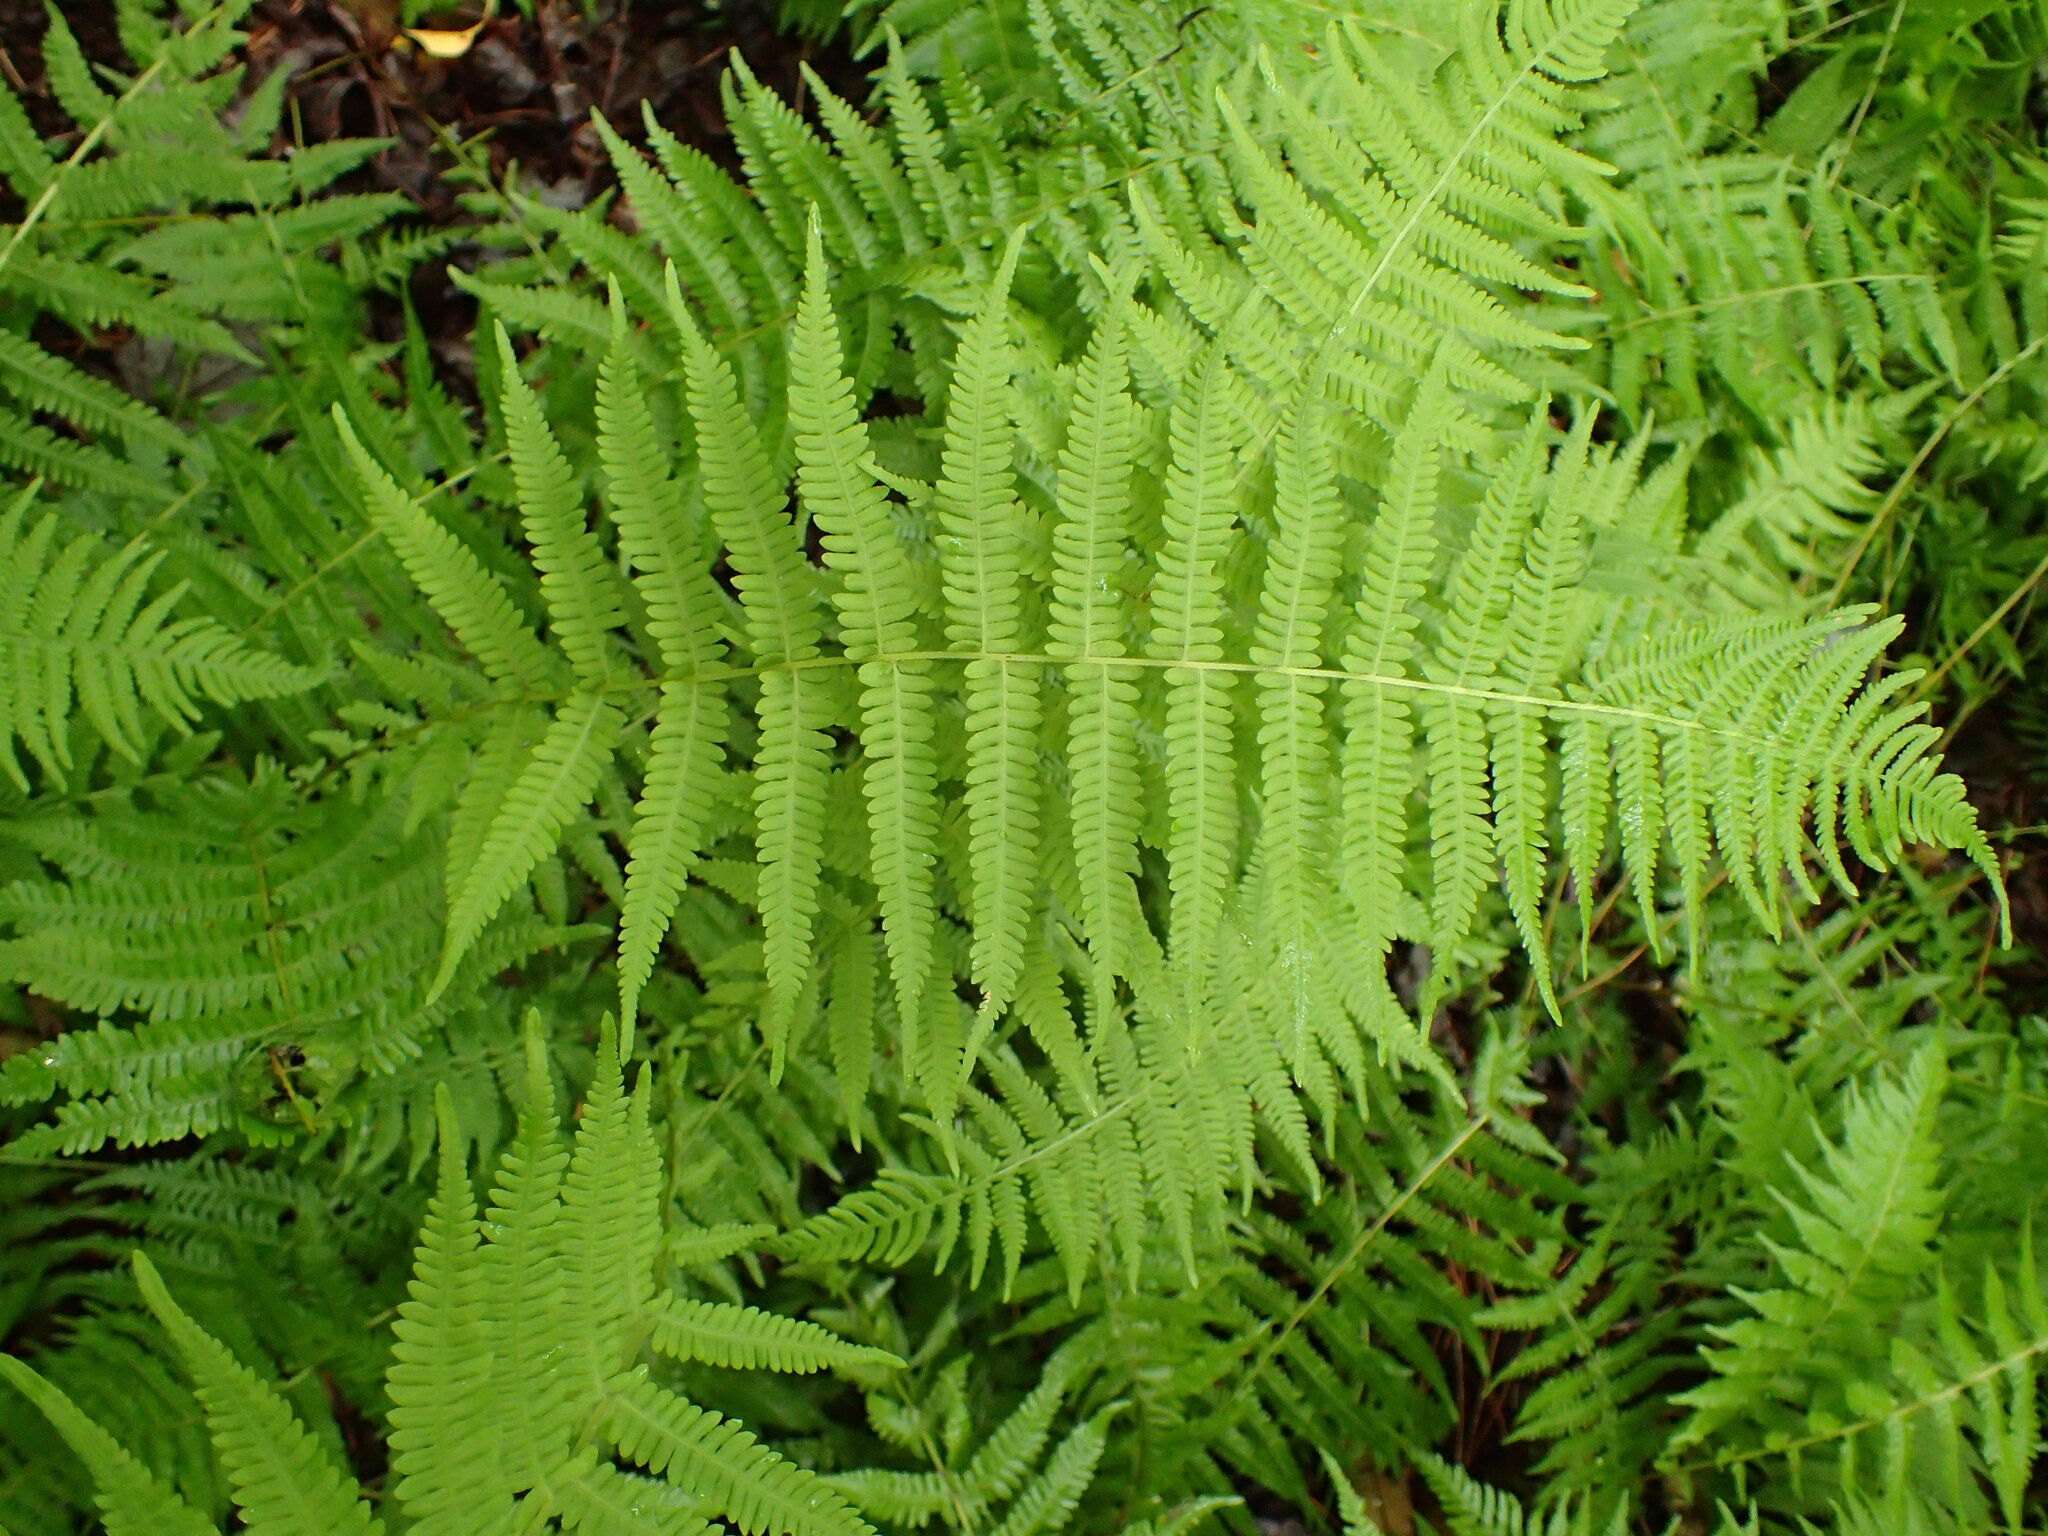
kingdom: Plantae
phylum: Tracheophyta
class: Polypodiopsida
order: Polypodiales
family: Thelypteridaceae
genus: Amauropelta
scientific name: Amauropelta noveboracensis
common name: New york fern
